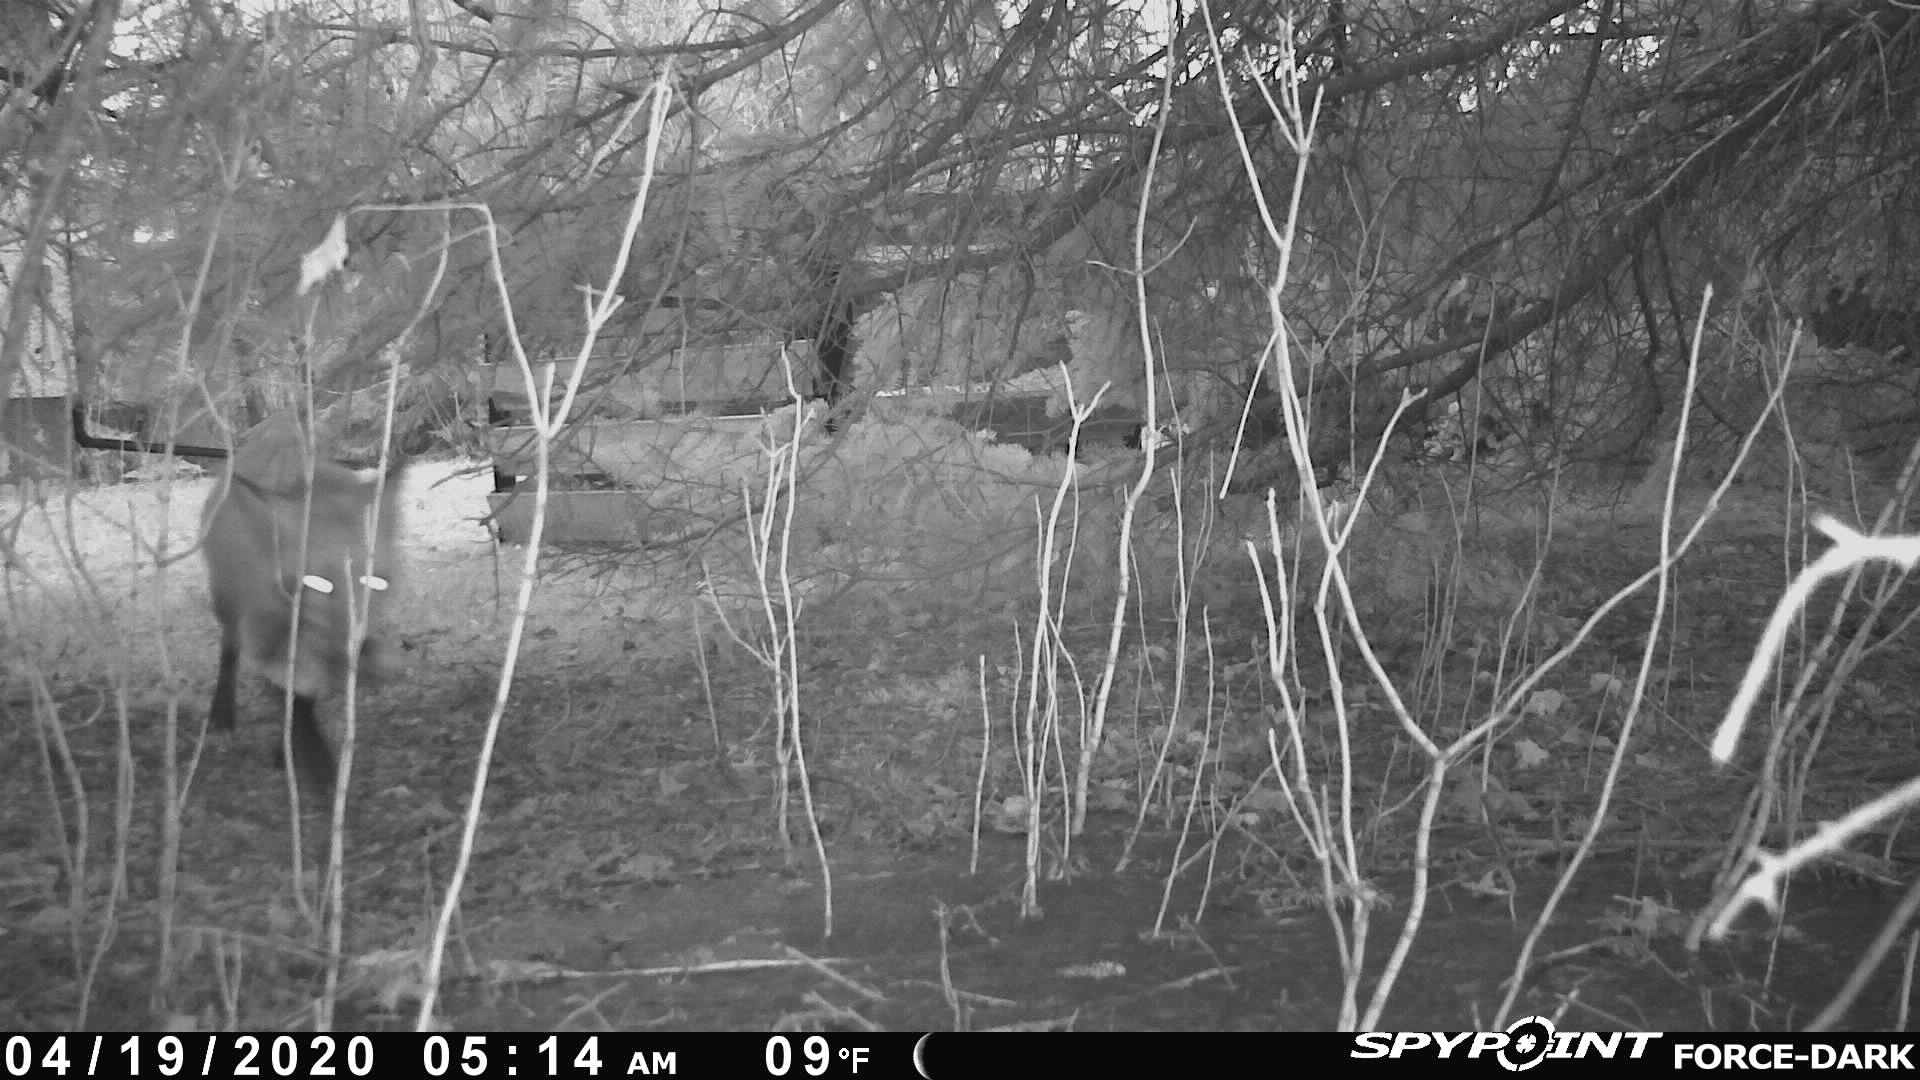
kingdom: Animalia
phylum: Chordata
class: Mammalia
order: Carnivora
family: Canidae
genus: Vulpes
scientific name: Vulpes vulpes
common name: Red fox
